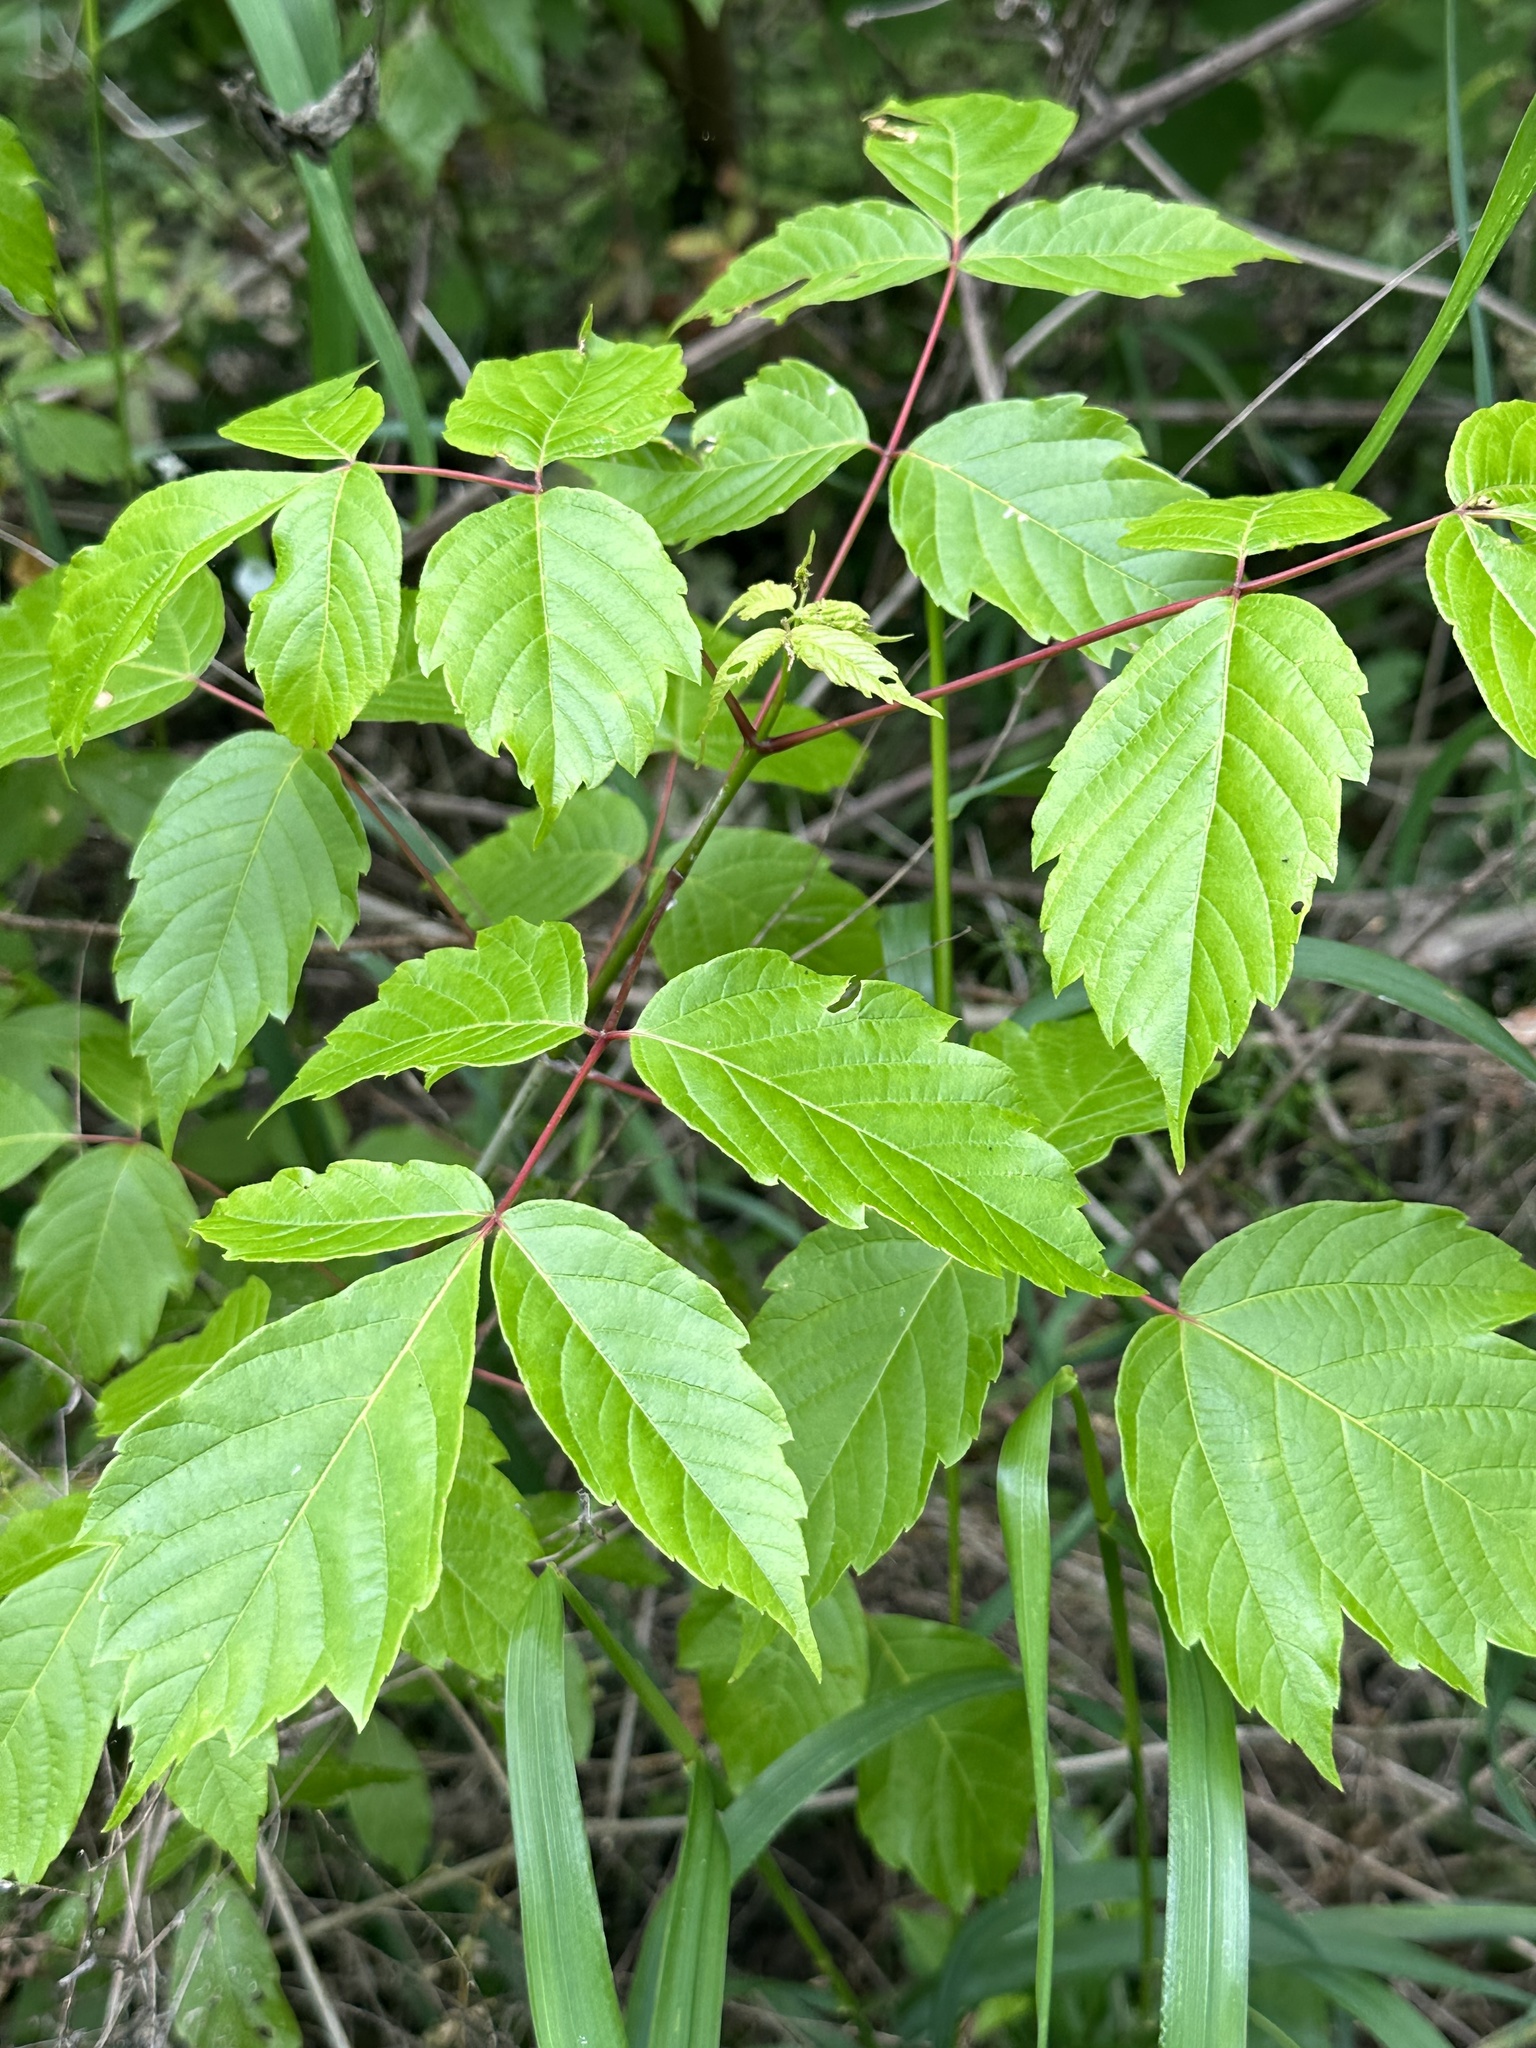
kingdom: Plantae
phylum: Tracheophyta
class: Magnoliopsida
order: Sapindales
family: Sapindaceae
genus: Acer
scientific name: Acer negundo
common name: Ashleaf maple
